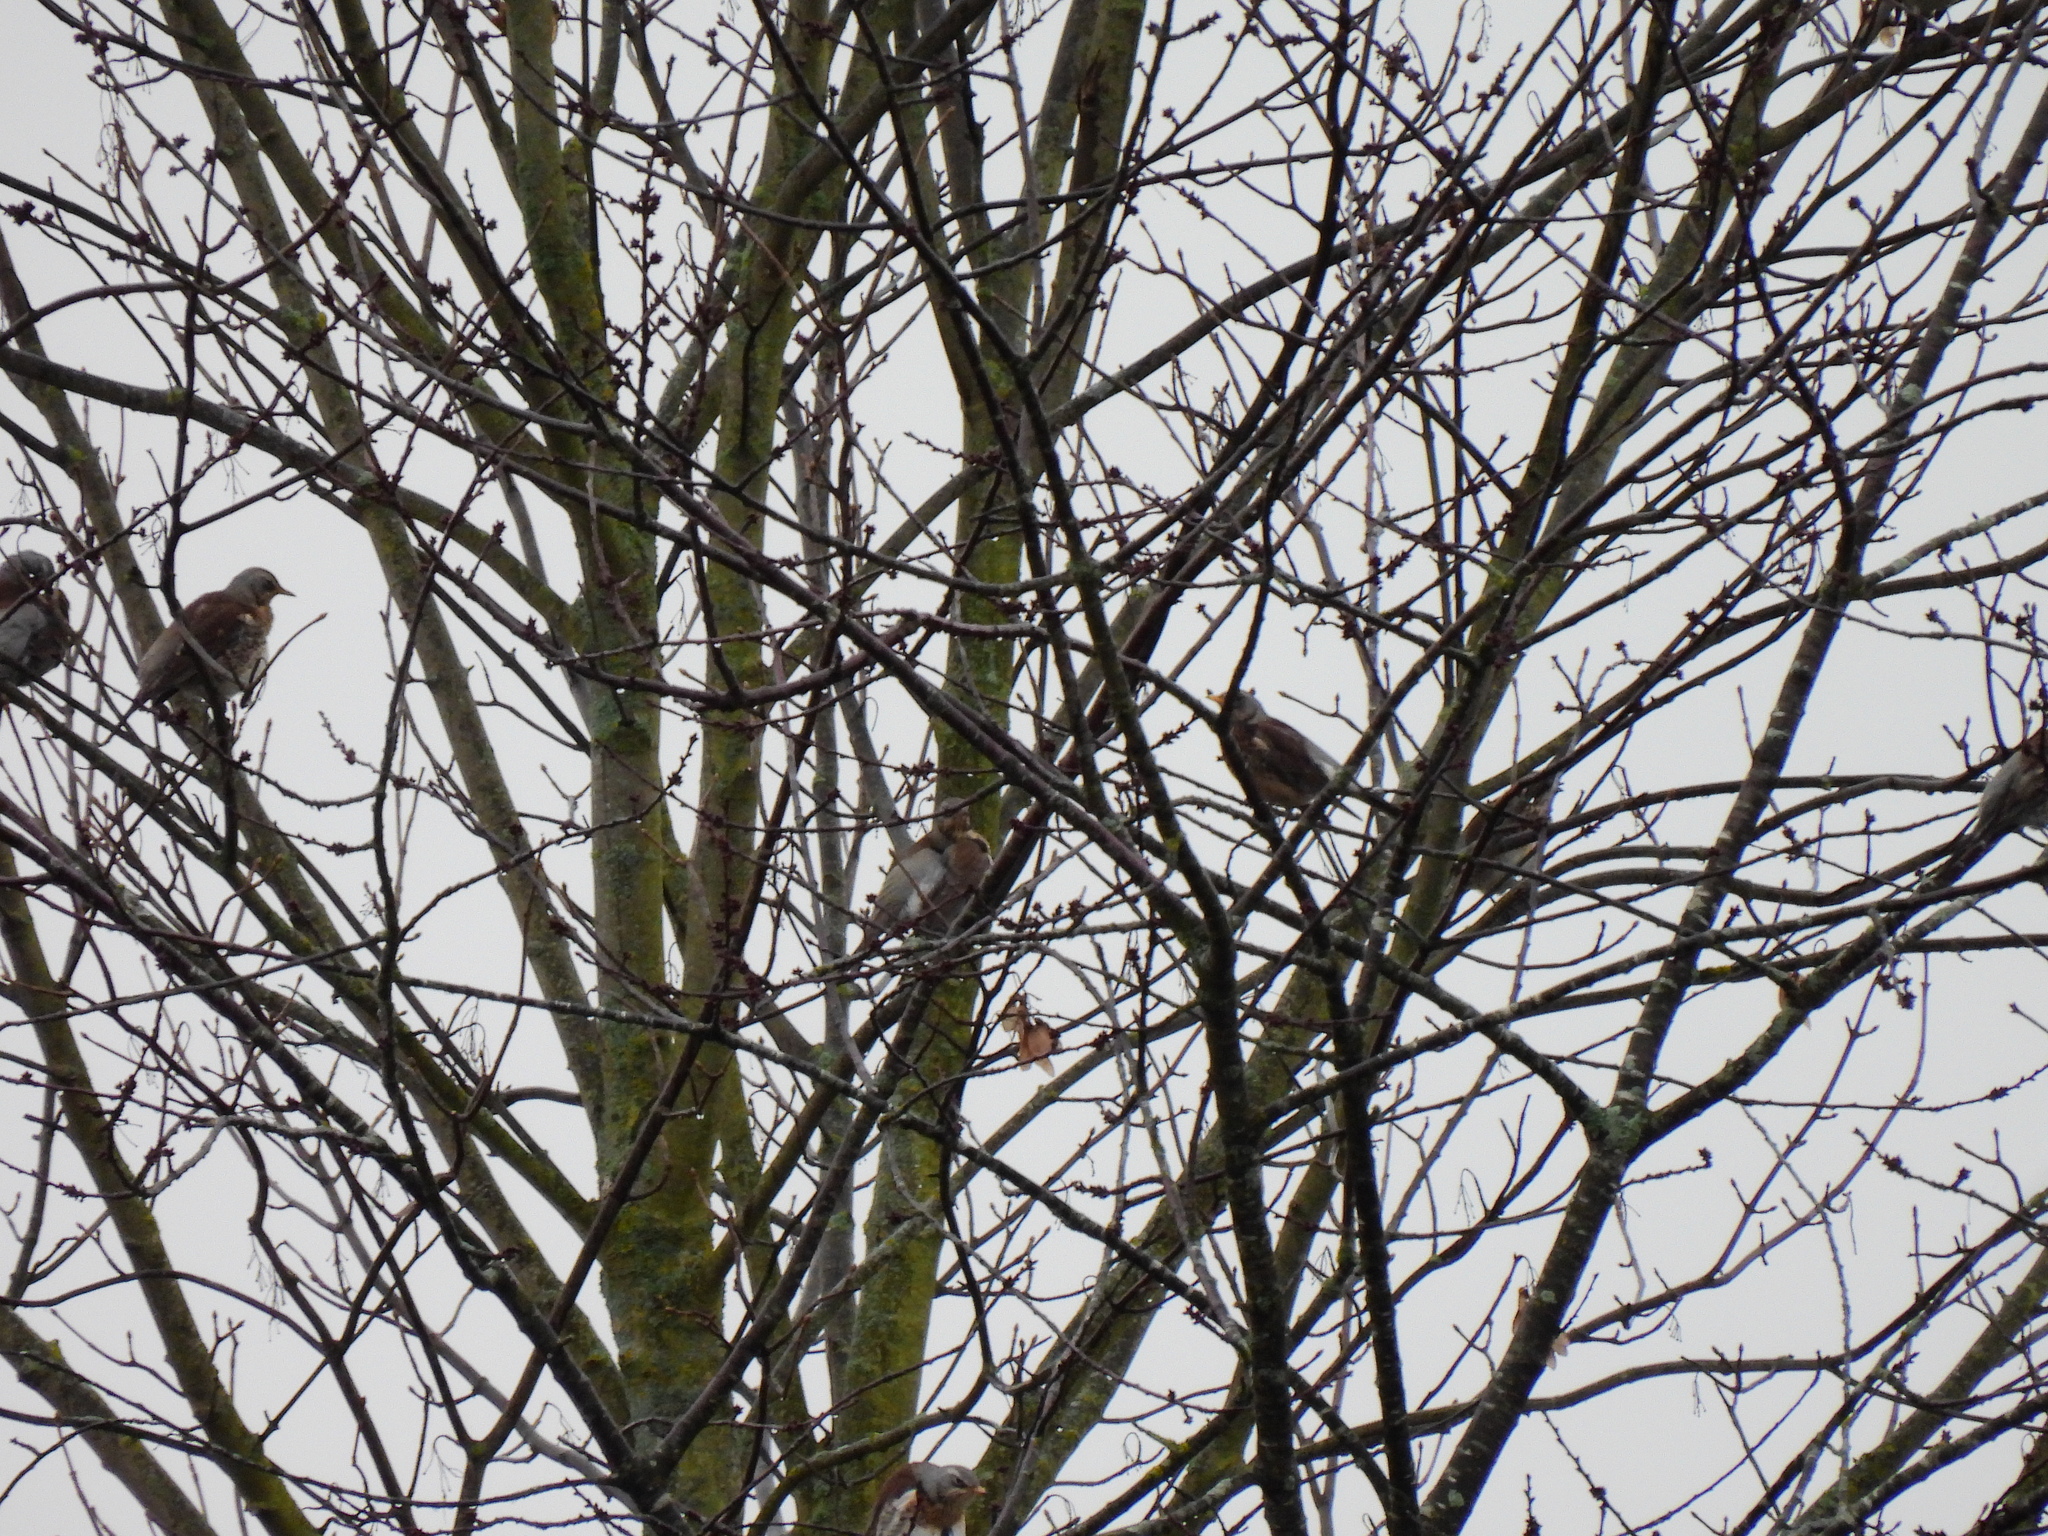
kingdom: Animalia
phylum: Chordata
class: Aves
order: Passeriformes
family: Turdidae
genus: Turdus
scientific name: Turdus pilaris
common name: Fieldfare
